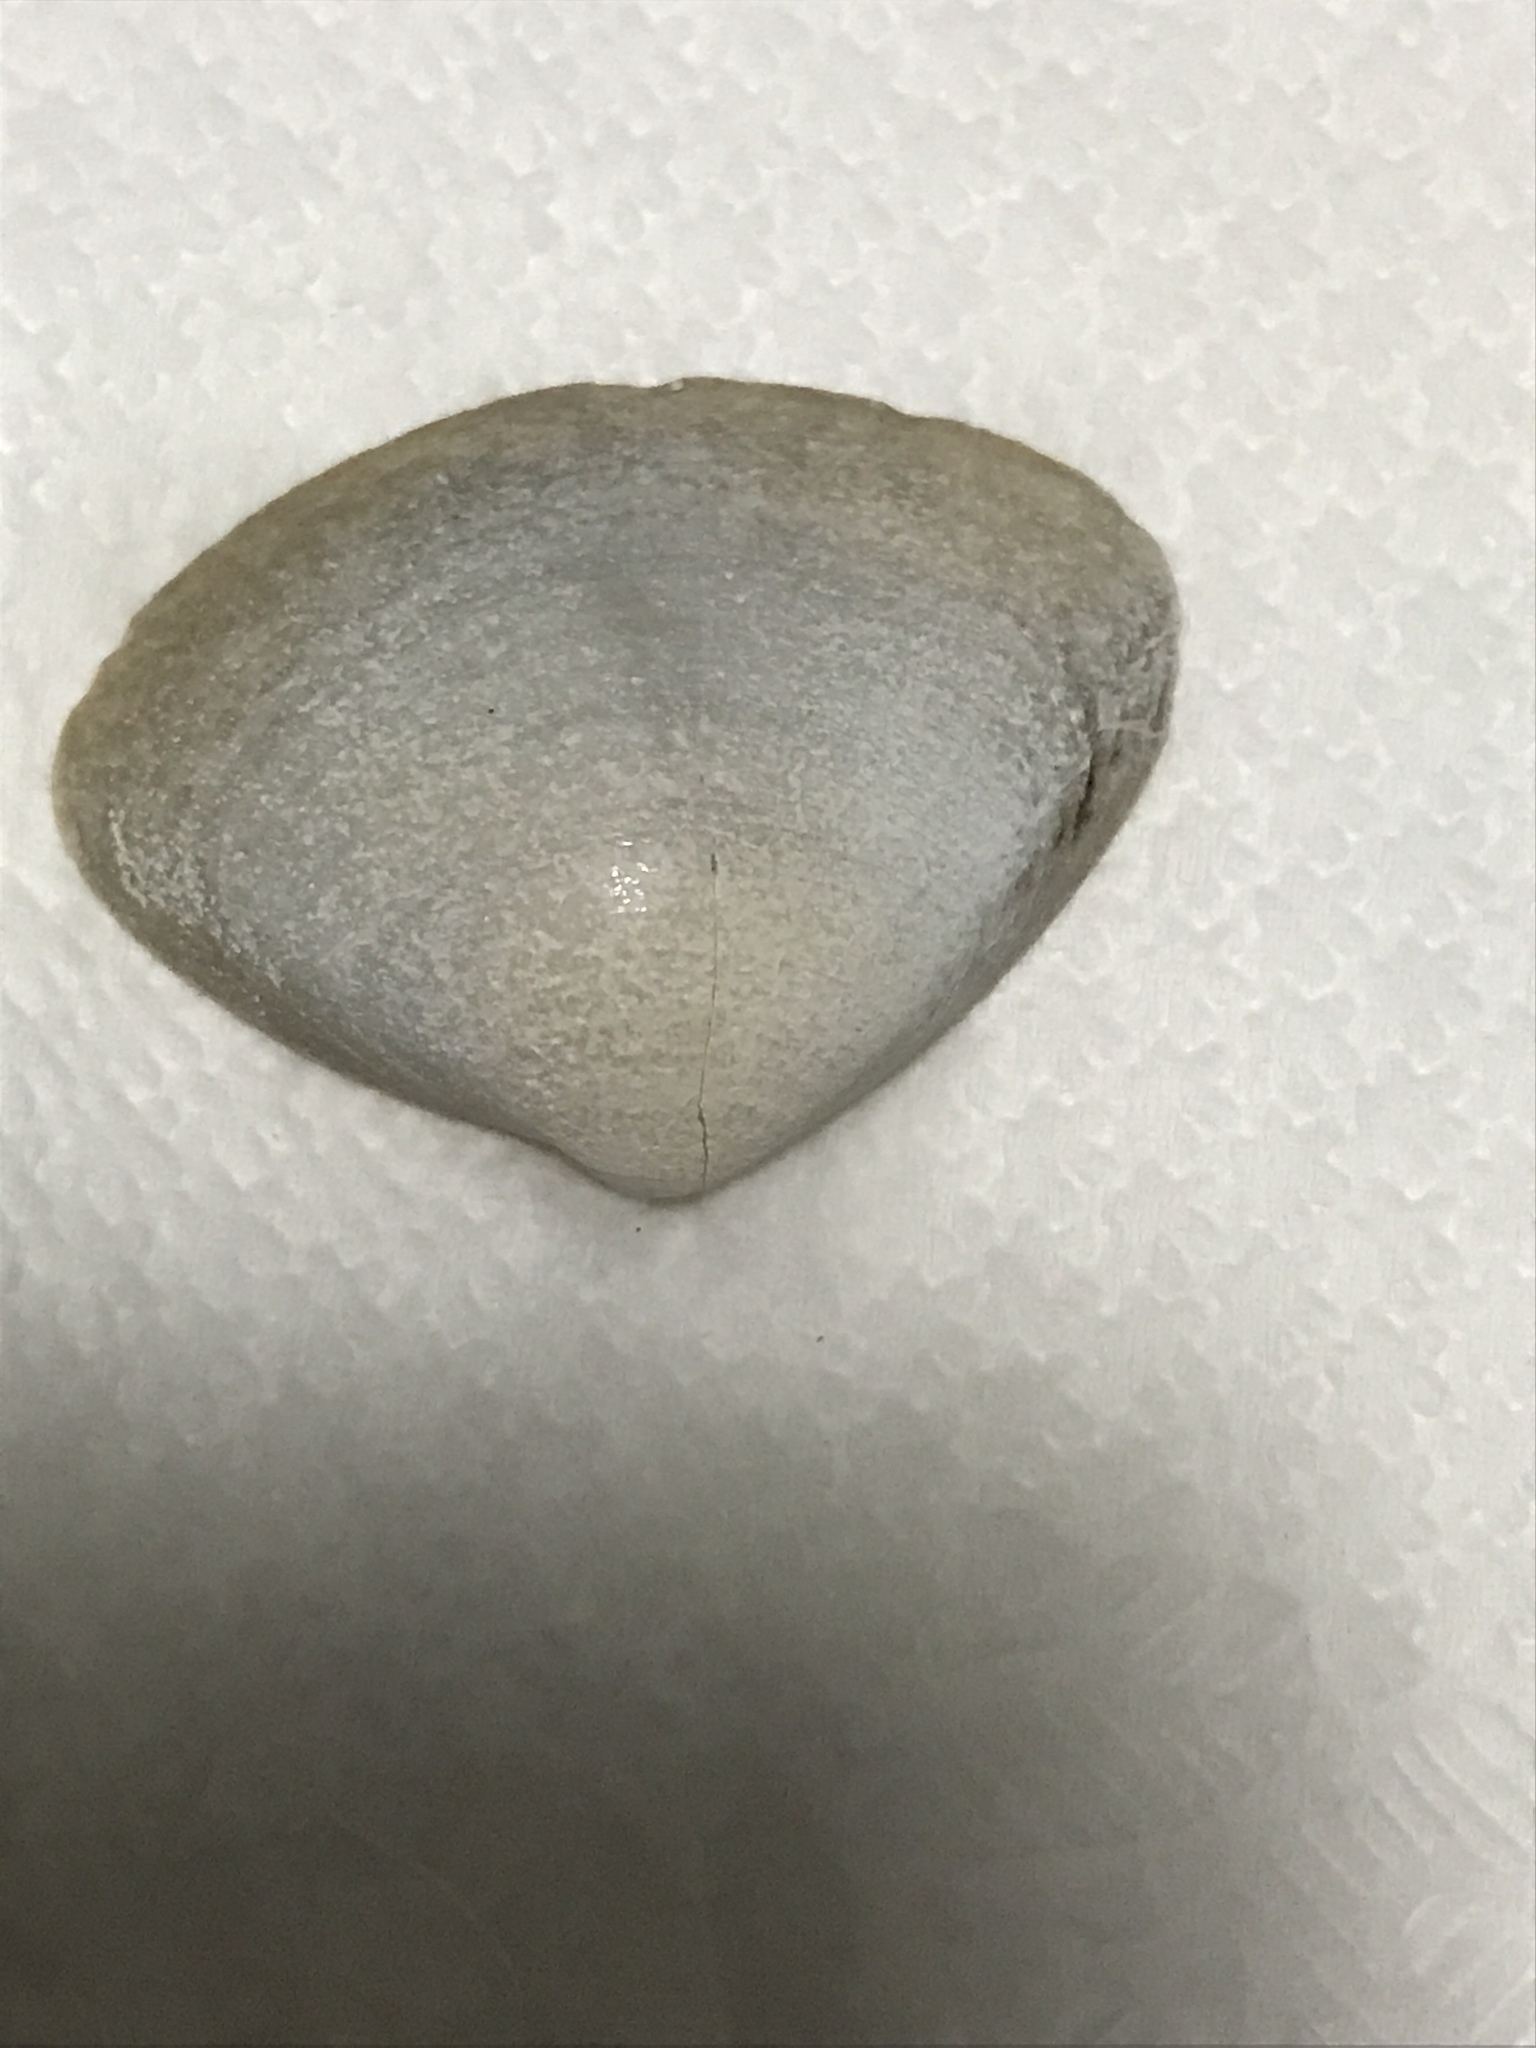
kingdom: Animalia
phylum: Mollusca
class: Bivalvia
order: Venerida
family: Mactridae
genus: Spisula
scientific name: Spisula solidissima
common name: Atlantic surf clam
